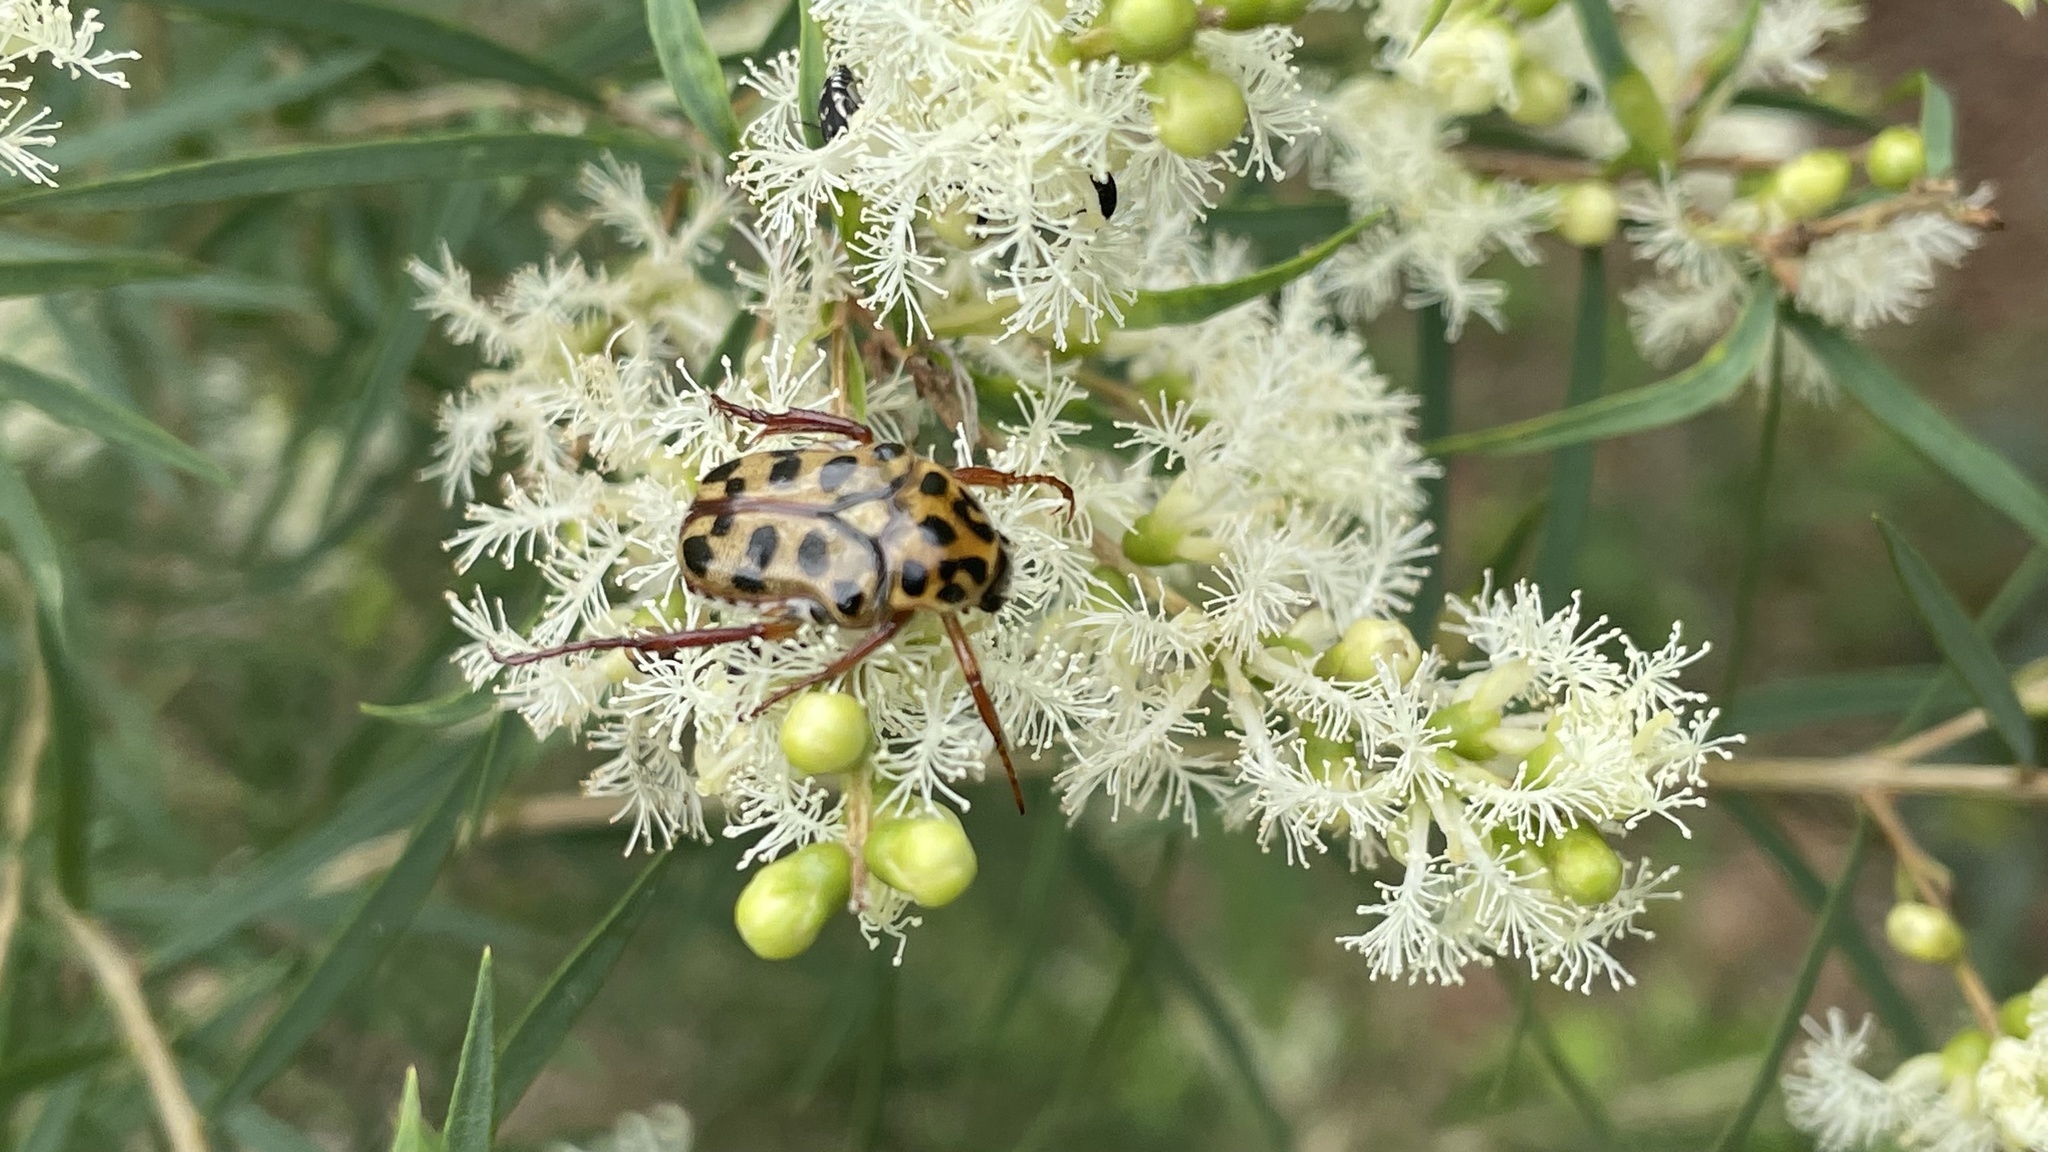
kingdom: Animalia
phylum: Arthropoda
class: Insecta
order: Coleoptera
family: Scarabaeidae
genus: Neorrhina
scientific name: Neorrhina punctatum
